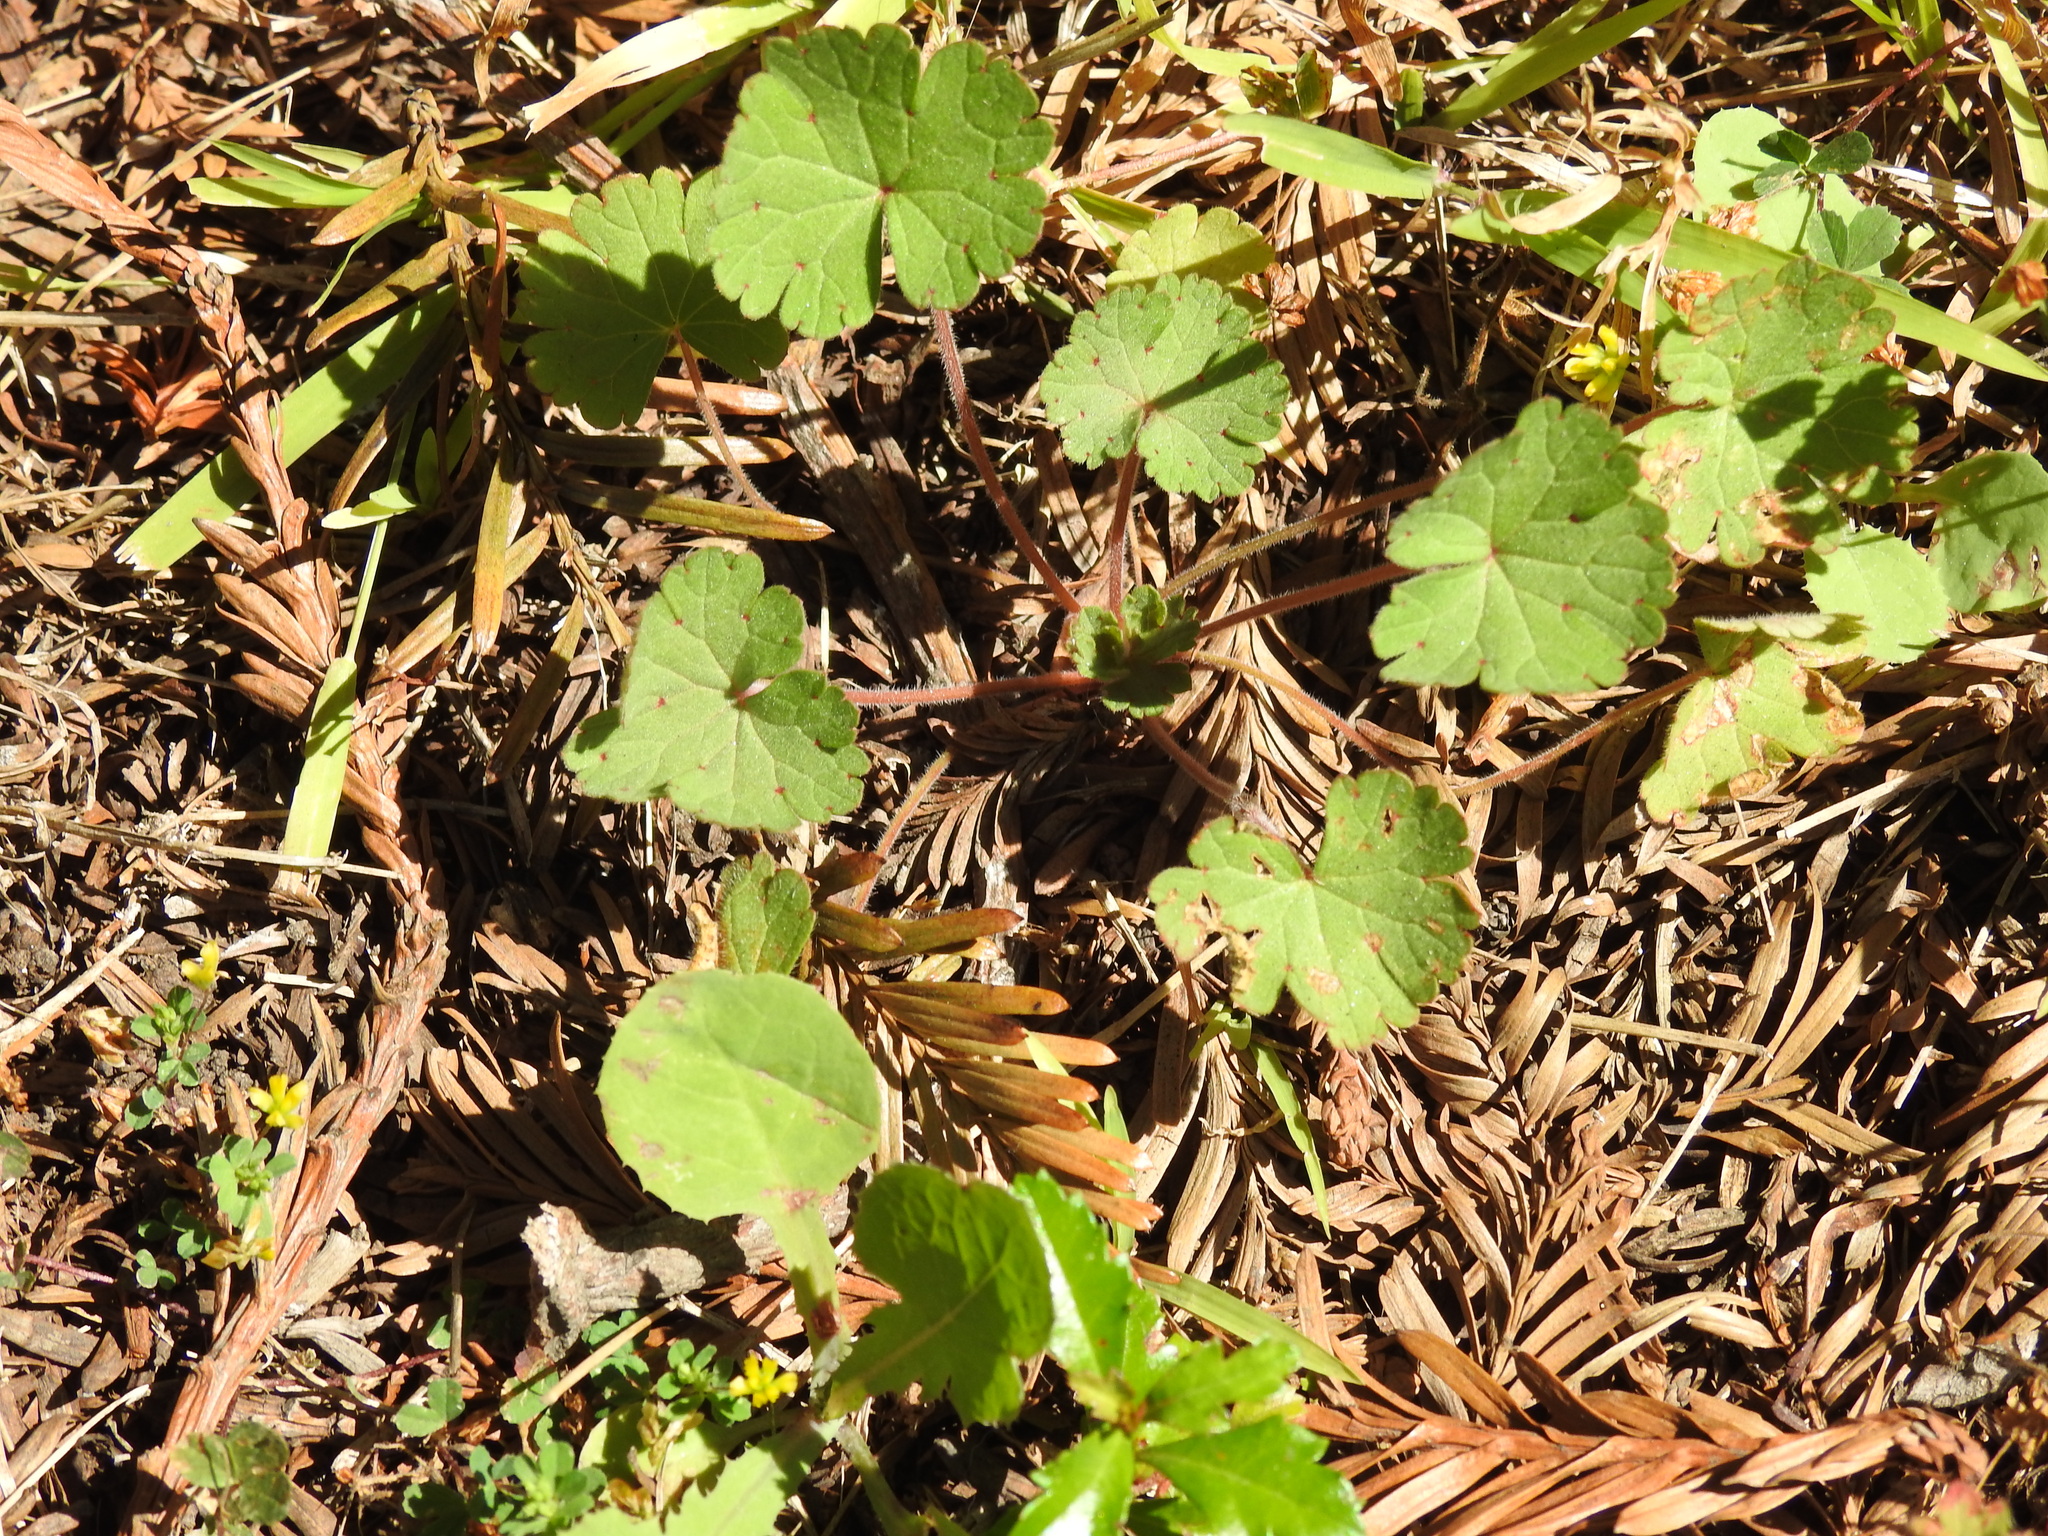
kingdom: Plantae
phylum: Tracheophyta
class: Magnoliopsida
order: Geraniales
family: Geraniaceae
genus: Geranium
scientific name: Geranium
